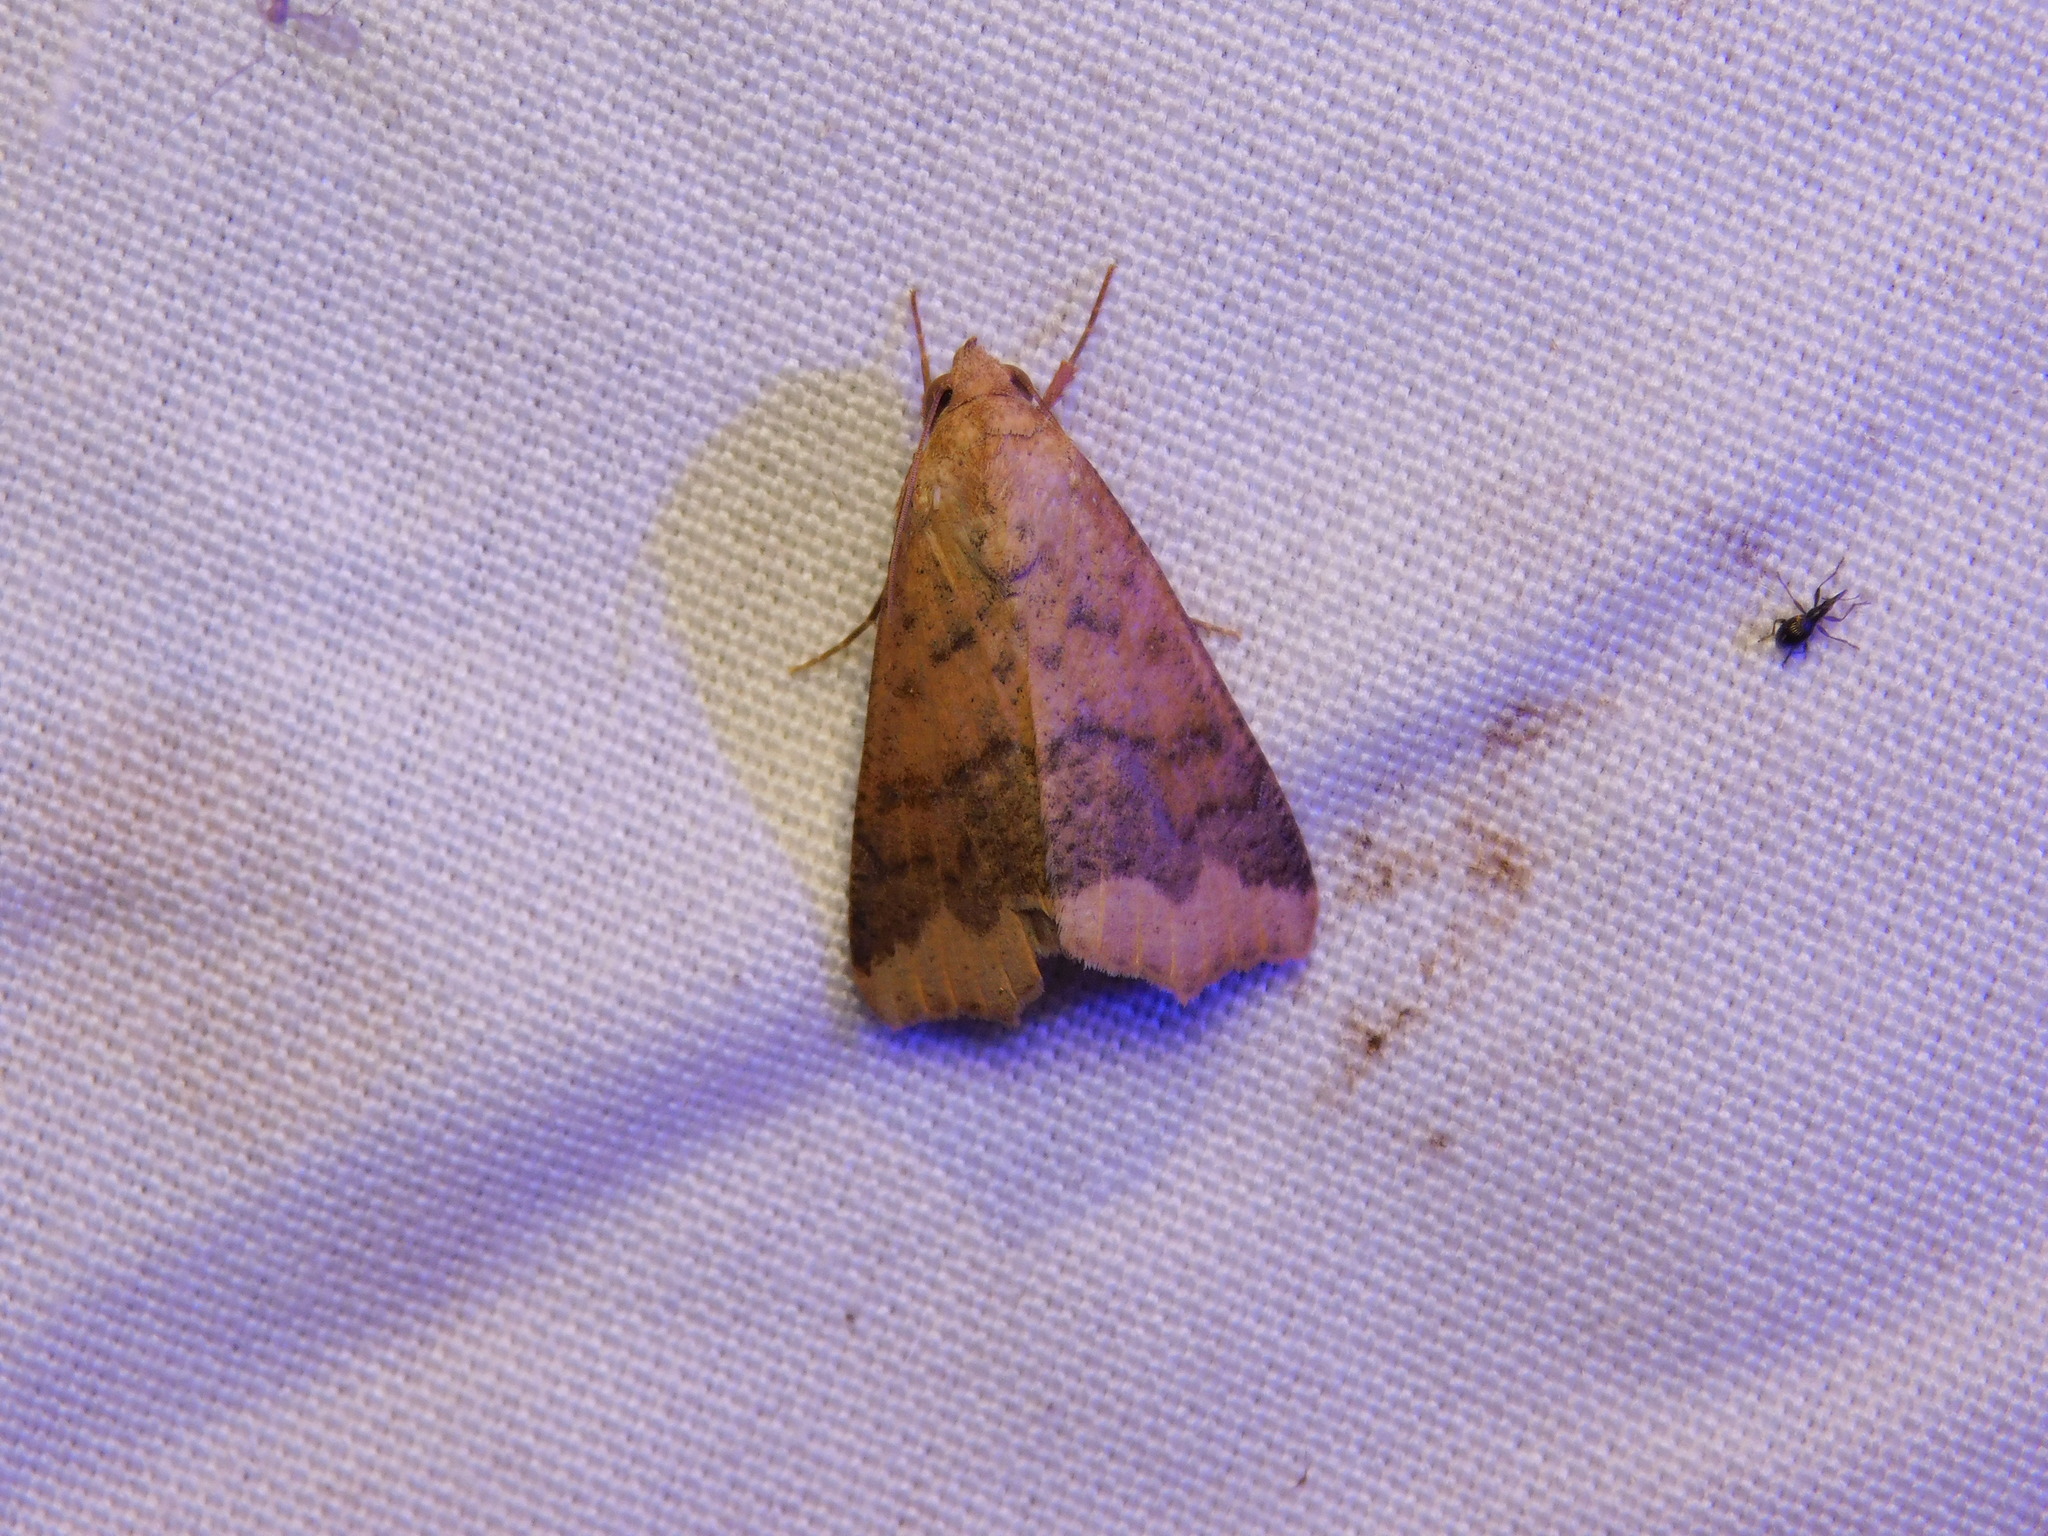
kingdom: Animalia
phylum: Arthropoda
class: Insecta
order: Lepidoptera
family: Erebidae
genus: Gonitis
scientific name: Gonitis involuta
